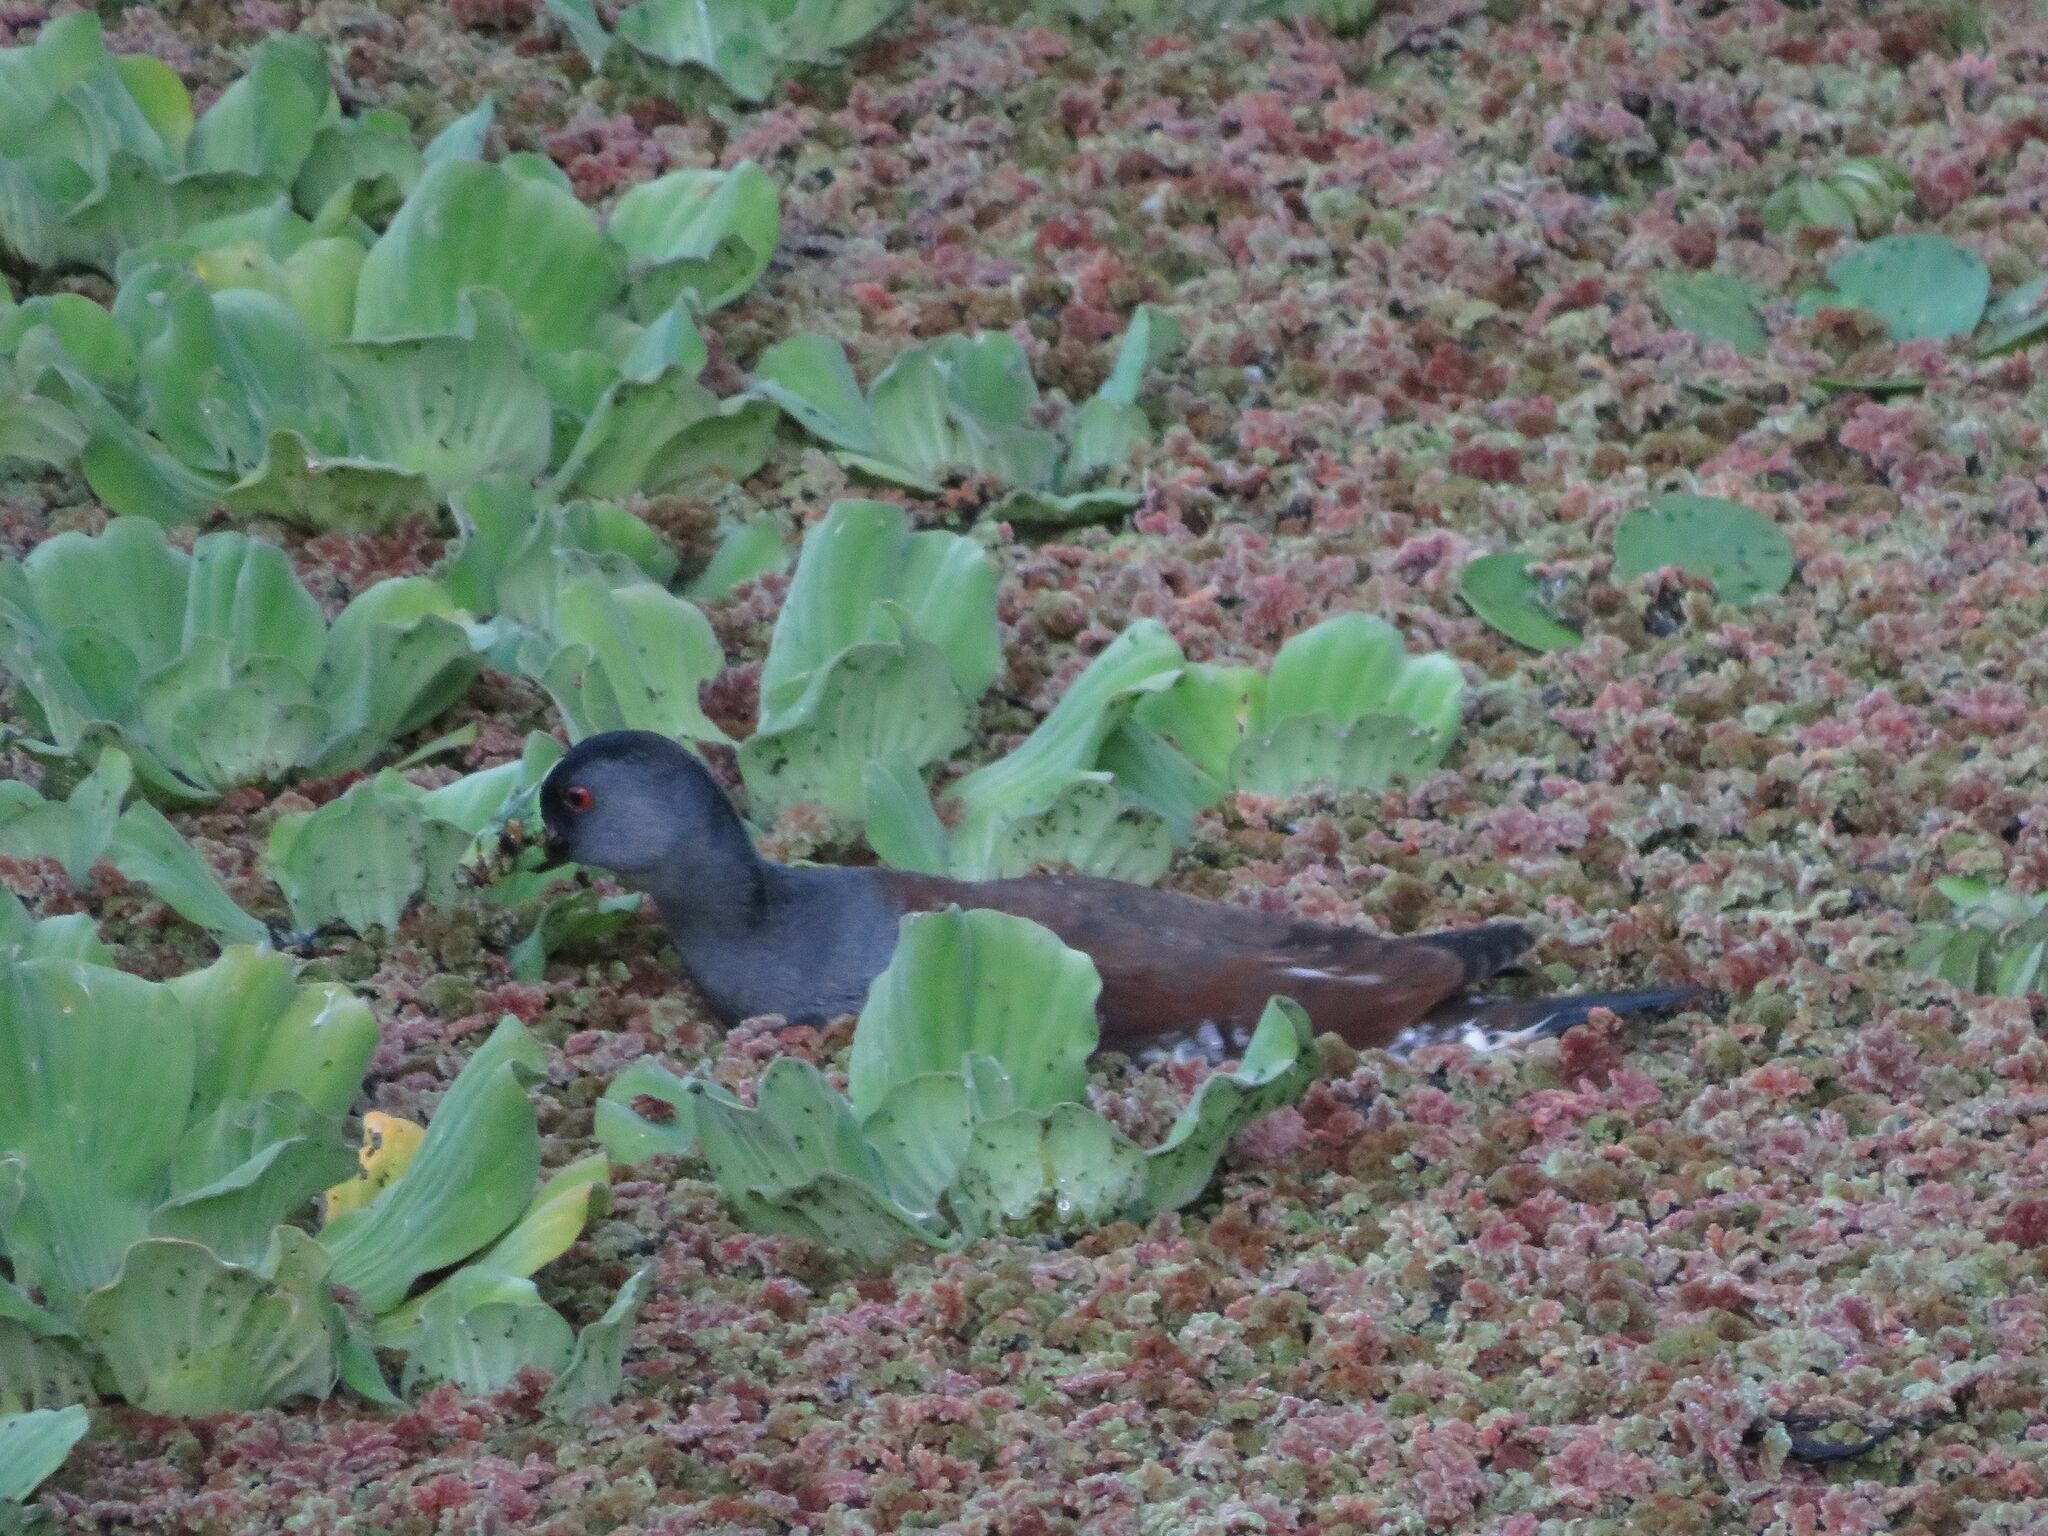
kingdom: Animalia
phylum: Chordata
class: Aves
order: Gruiformes
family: Rallidae
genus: Gallinula
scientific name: Gallinula melanops
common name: Spot-flanked gallinule
